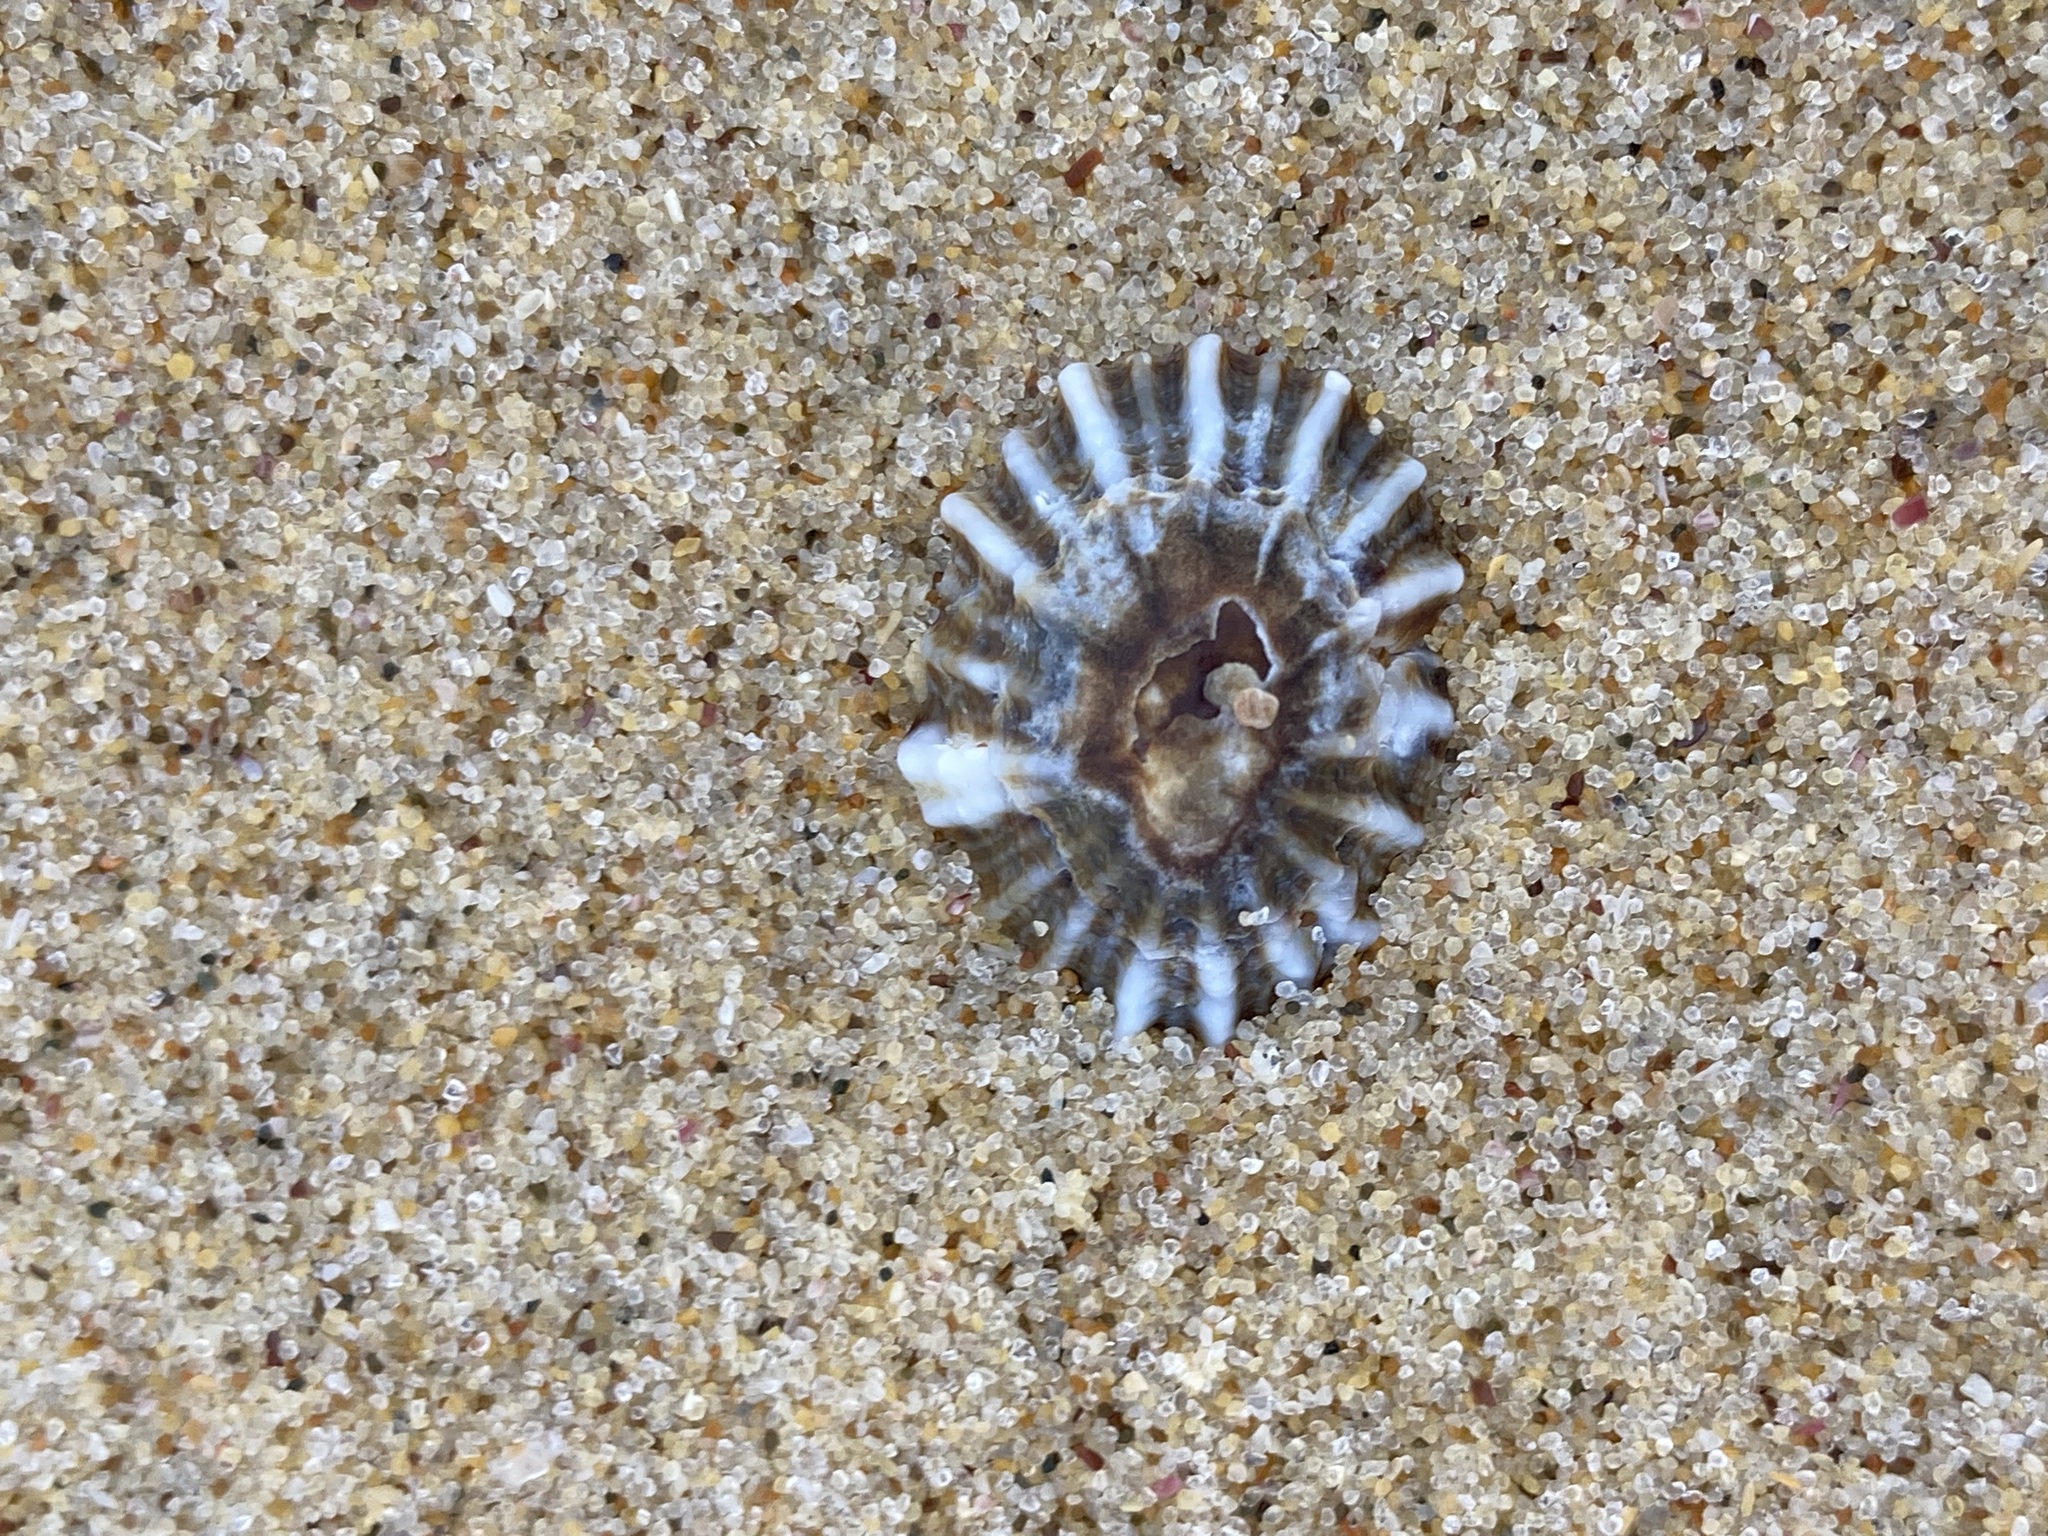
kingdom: Animalia
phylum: Mollusca
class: Gastropoda
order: Siphonariida
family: Siphonariidae
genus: Siphonaria
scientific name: Siphonaria denticulata
